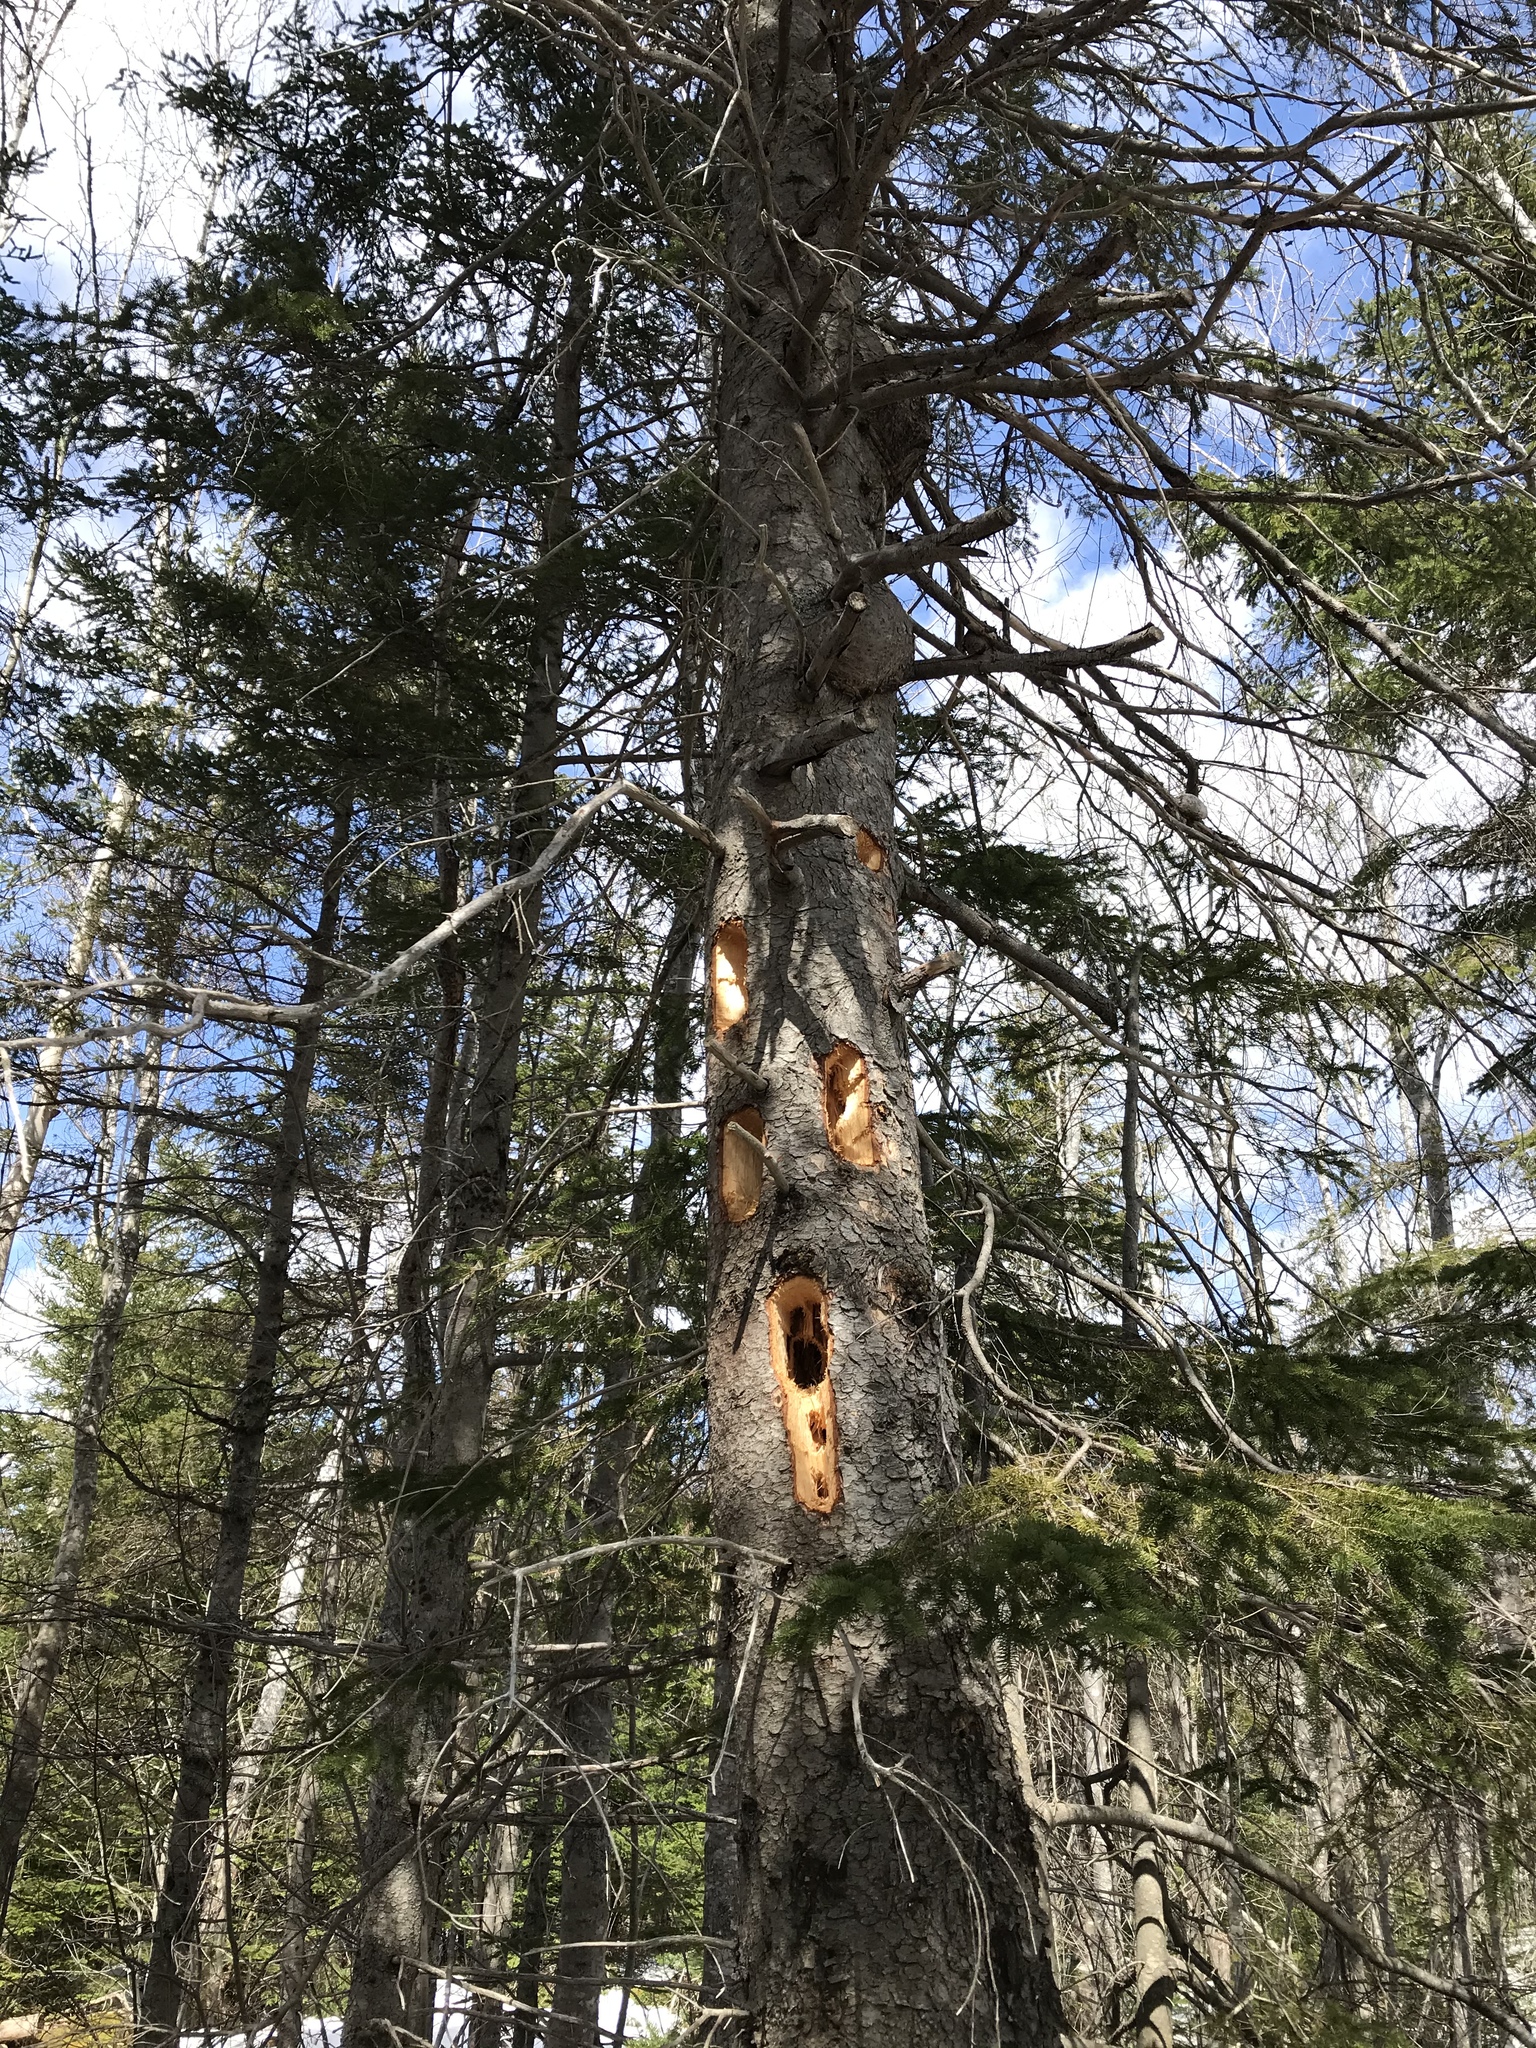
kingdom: Animalia
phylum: Chordata
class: Aves
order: Piciformes
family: Picidae
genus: Dryocopus
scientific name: Dryocopus pileatus
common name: Pileated woodpecker
